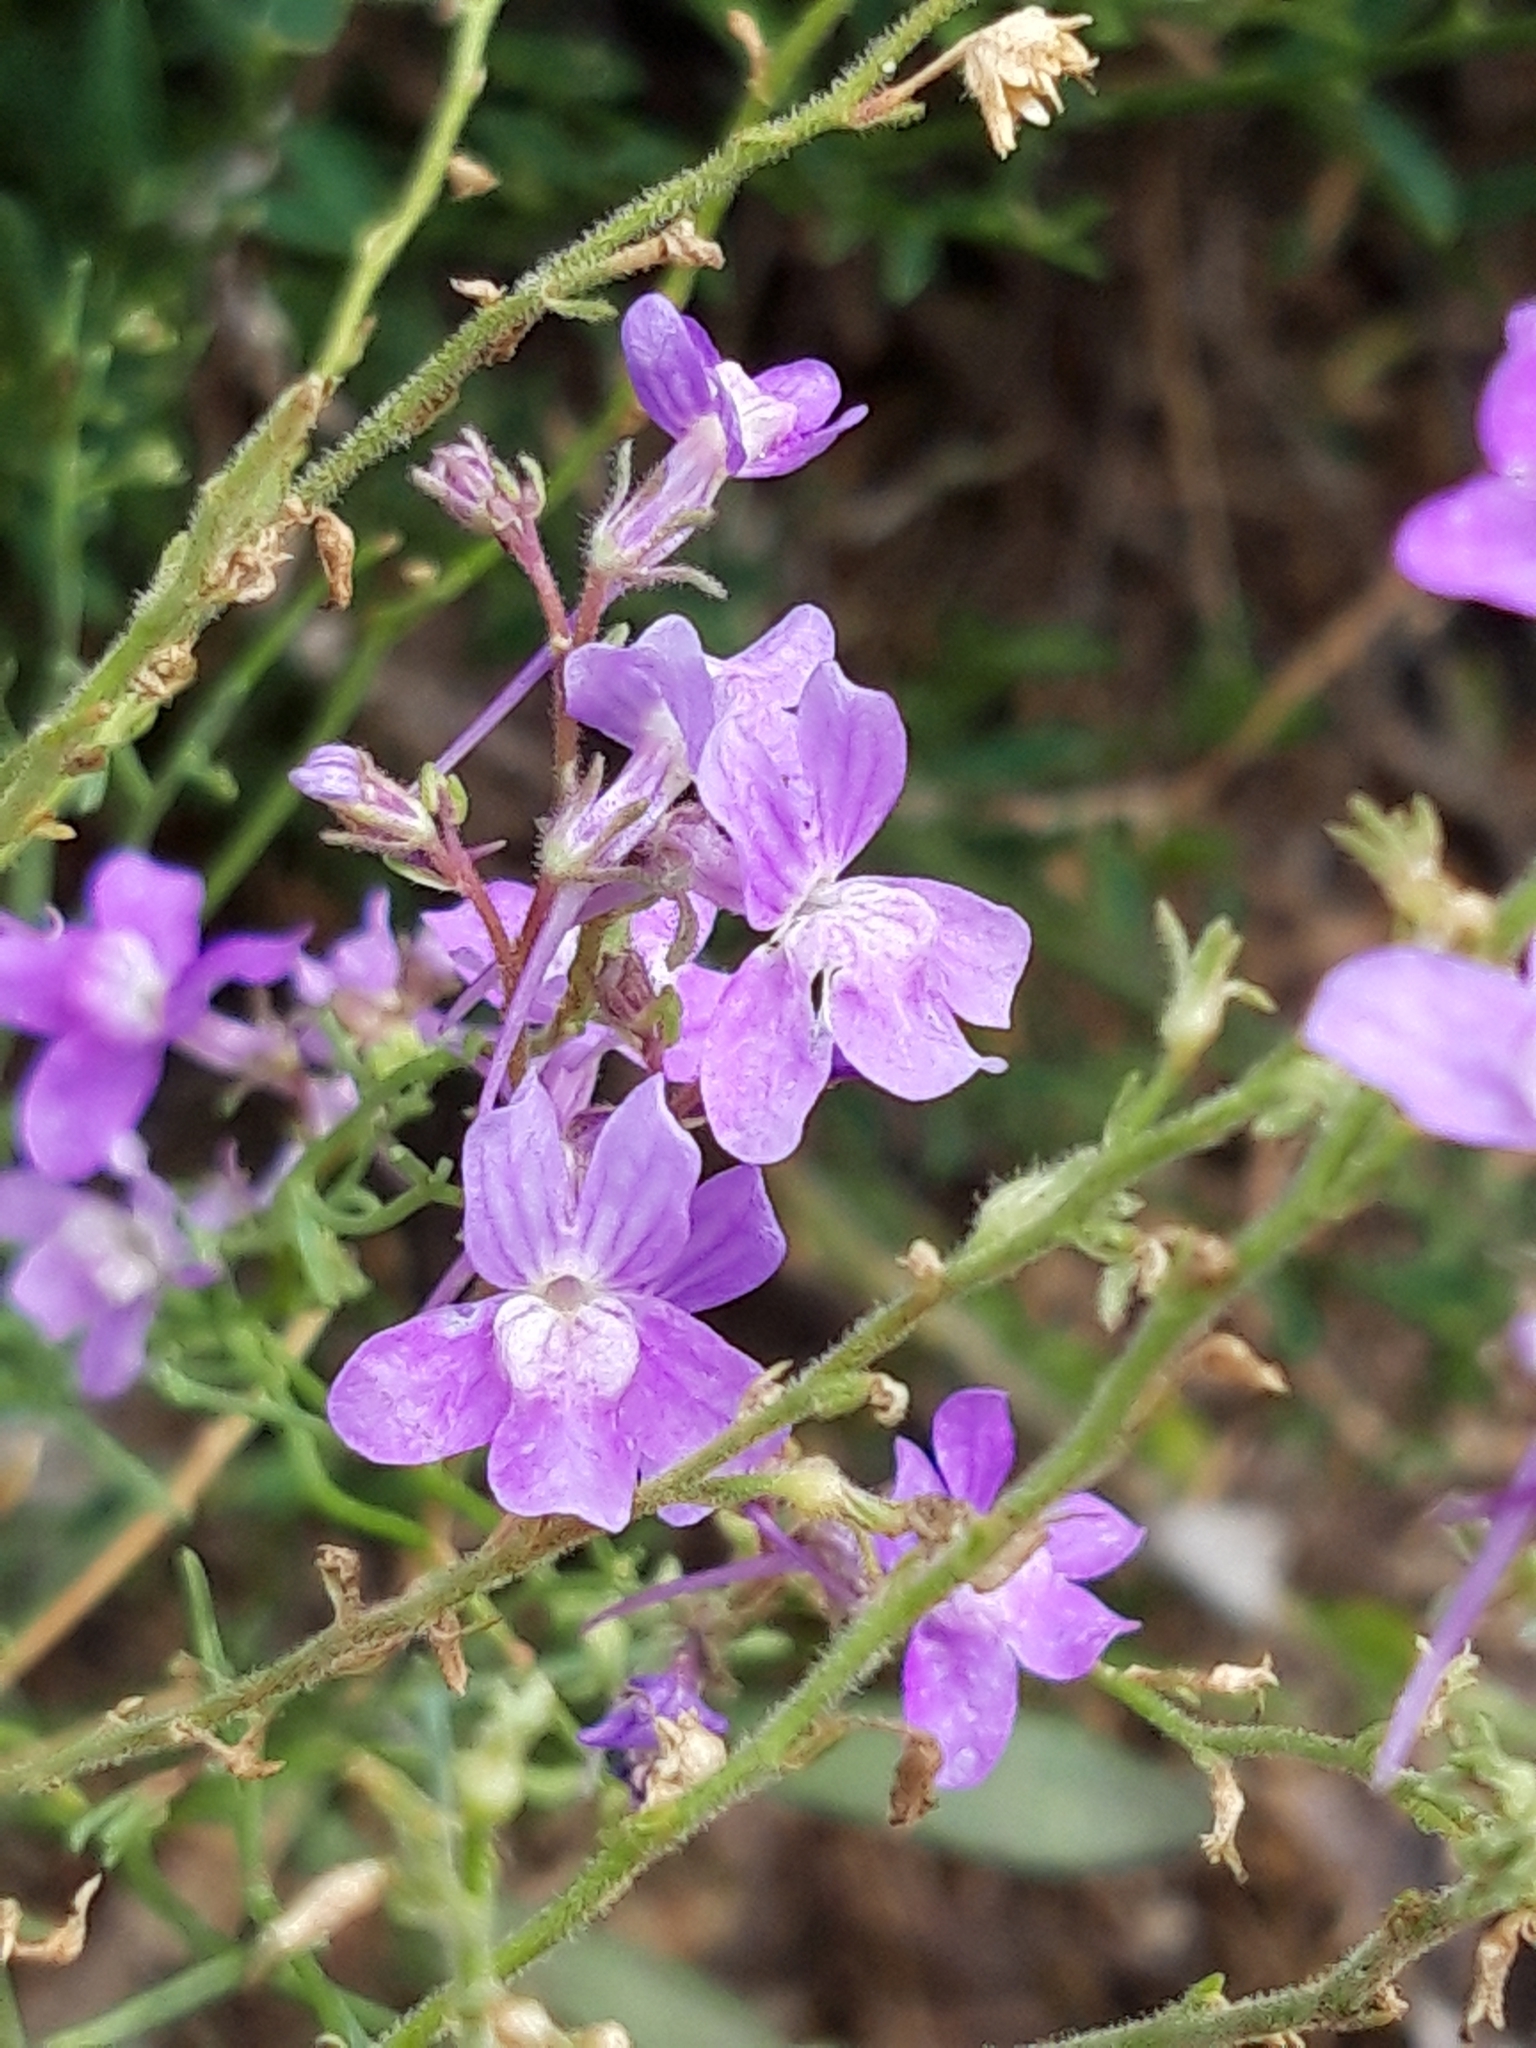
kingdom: Plantae
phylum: Tracheophyta
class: Magnoliopsida
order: Lamiales
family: Plantaginaceae
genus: Linaria
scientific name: Linaria elegans
